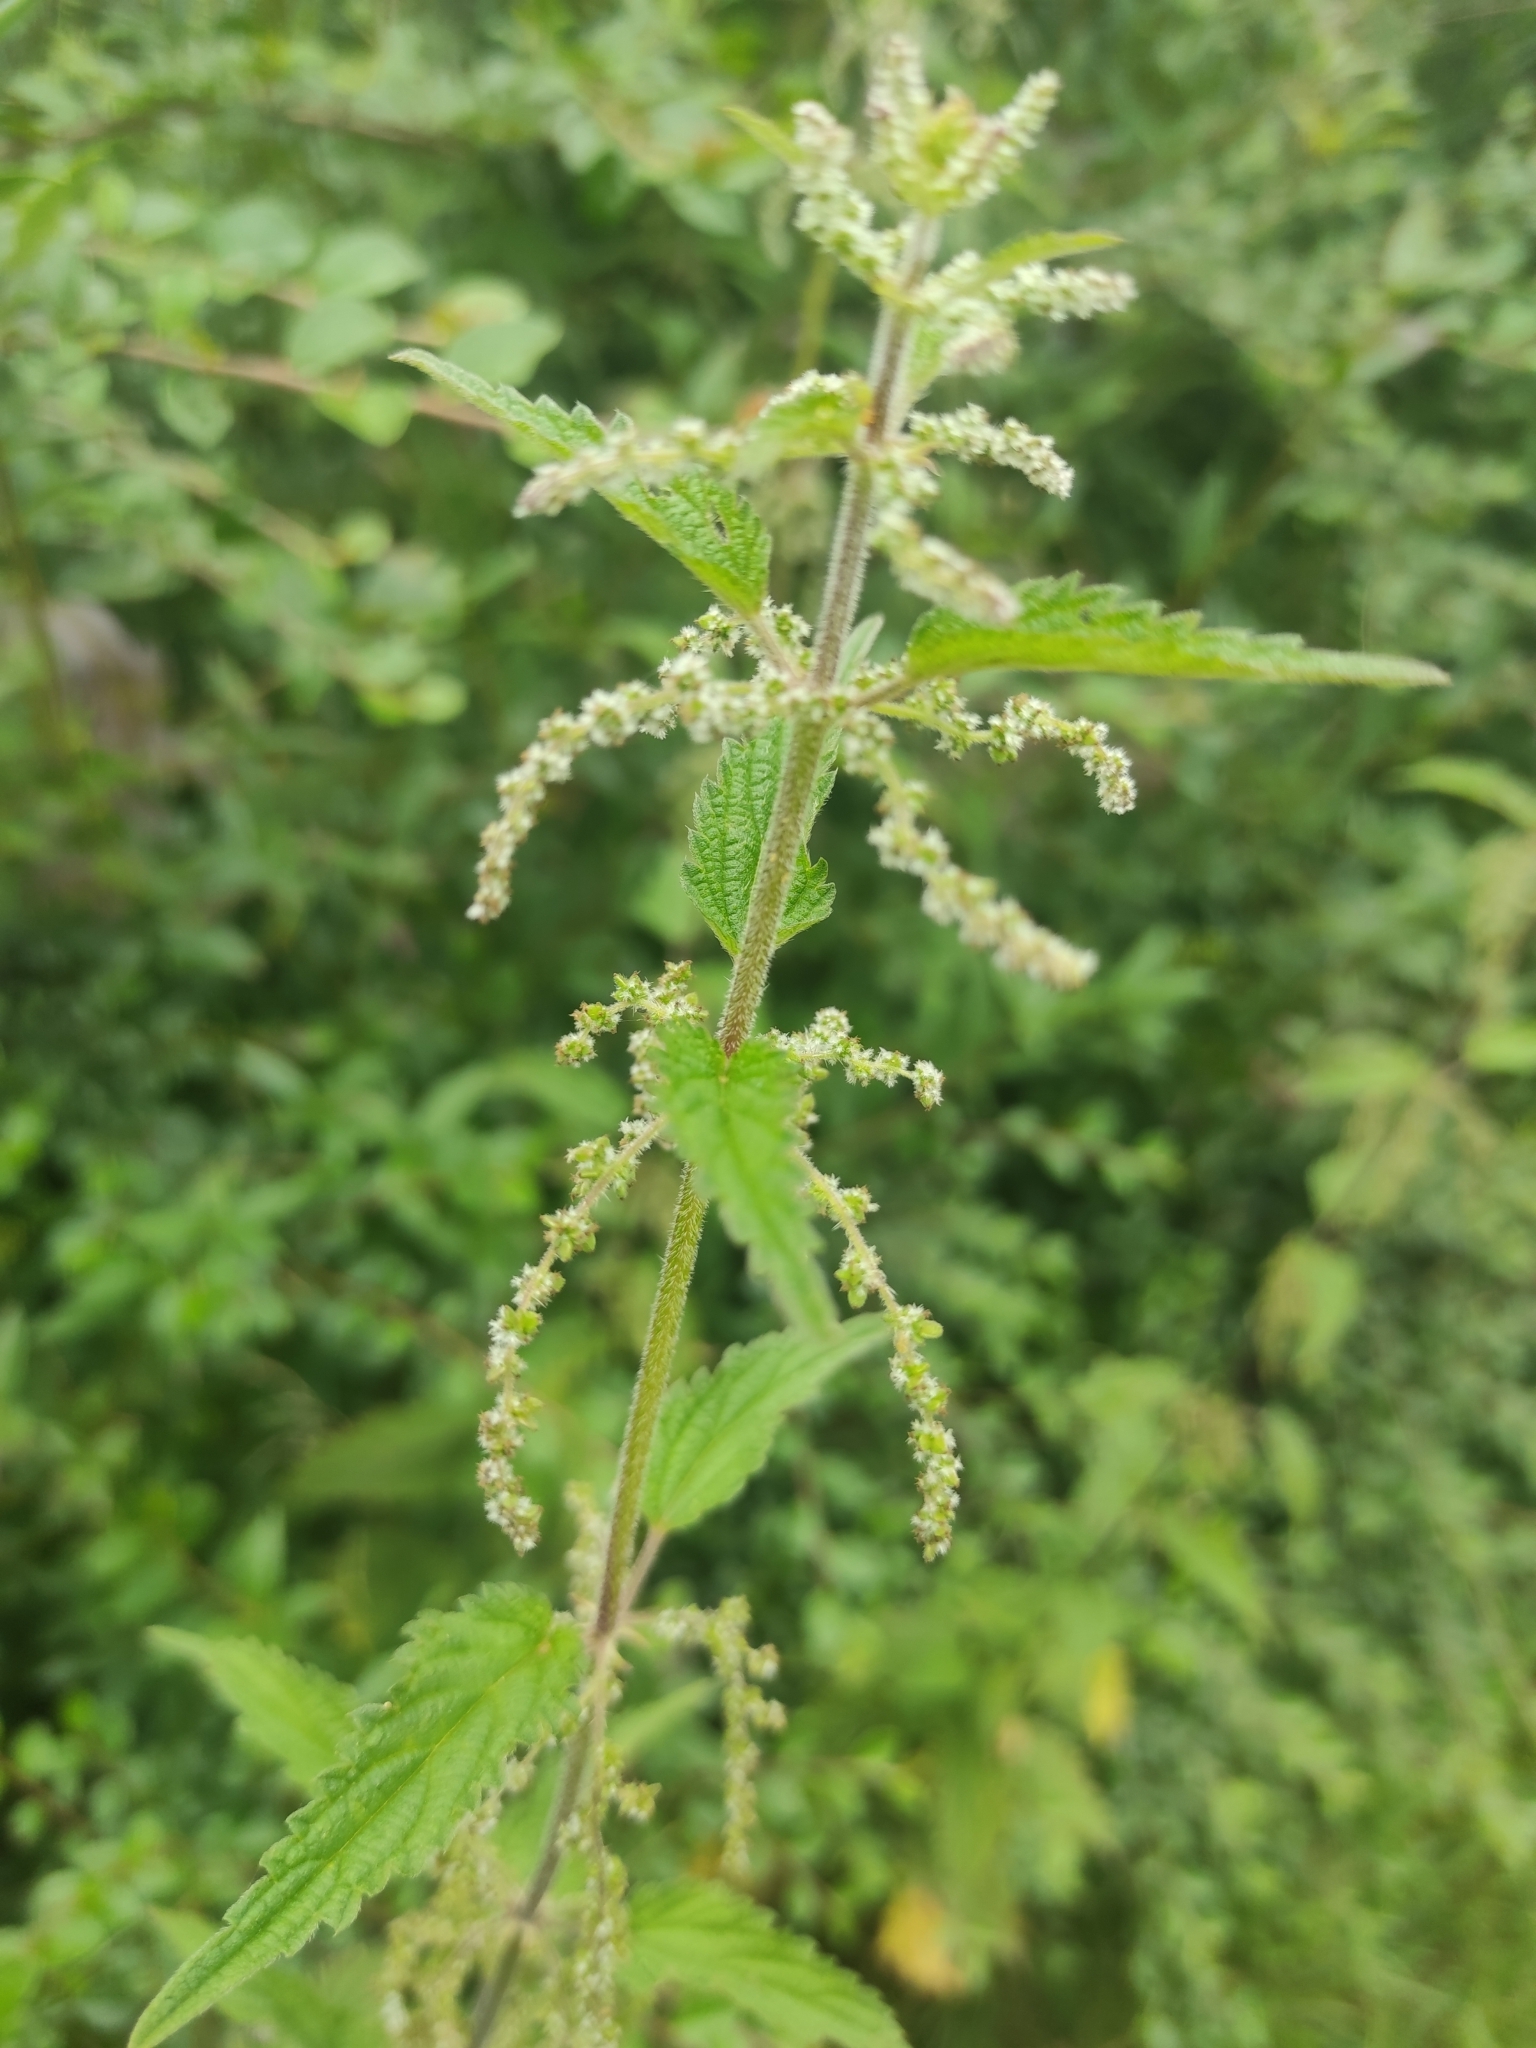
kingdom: Plantae
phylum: Tracheophyta
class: Magnoliopsida
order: Rosales
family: Urticaceae
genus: Urtica
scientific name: Urtica dioica
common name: Common nettle
